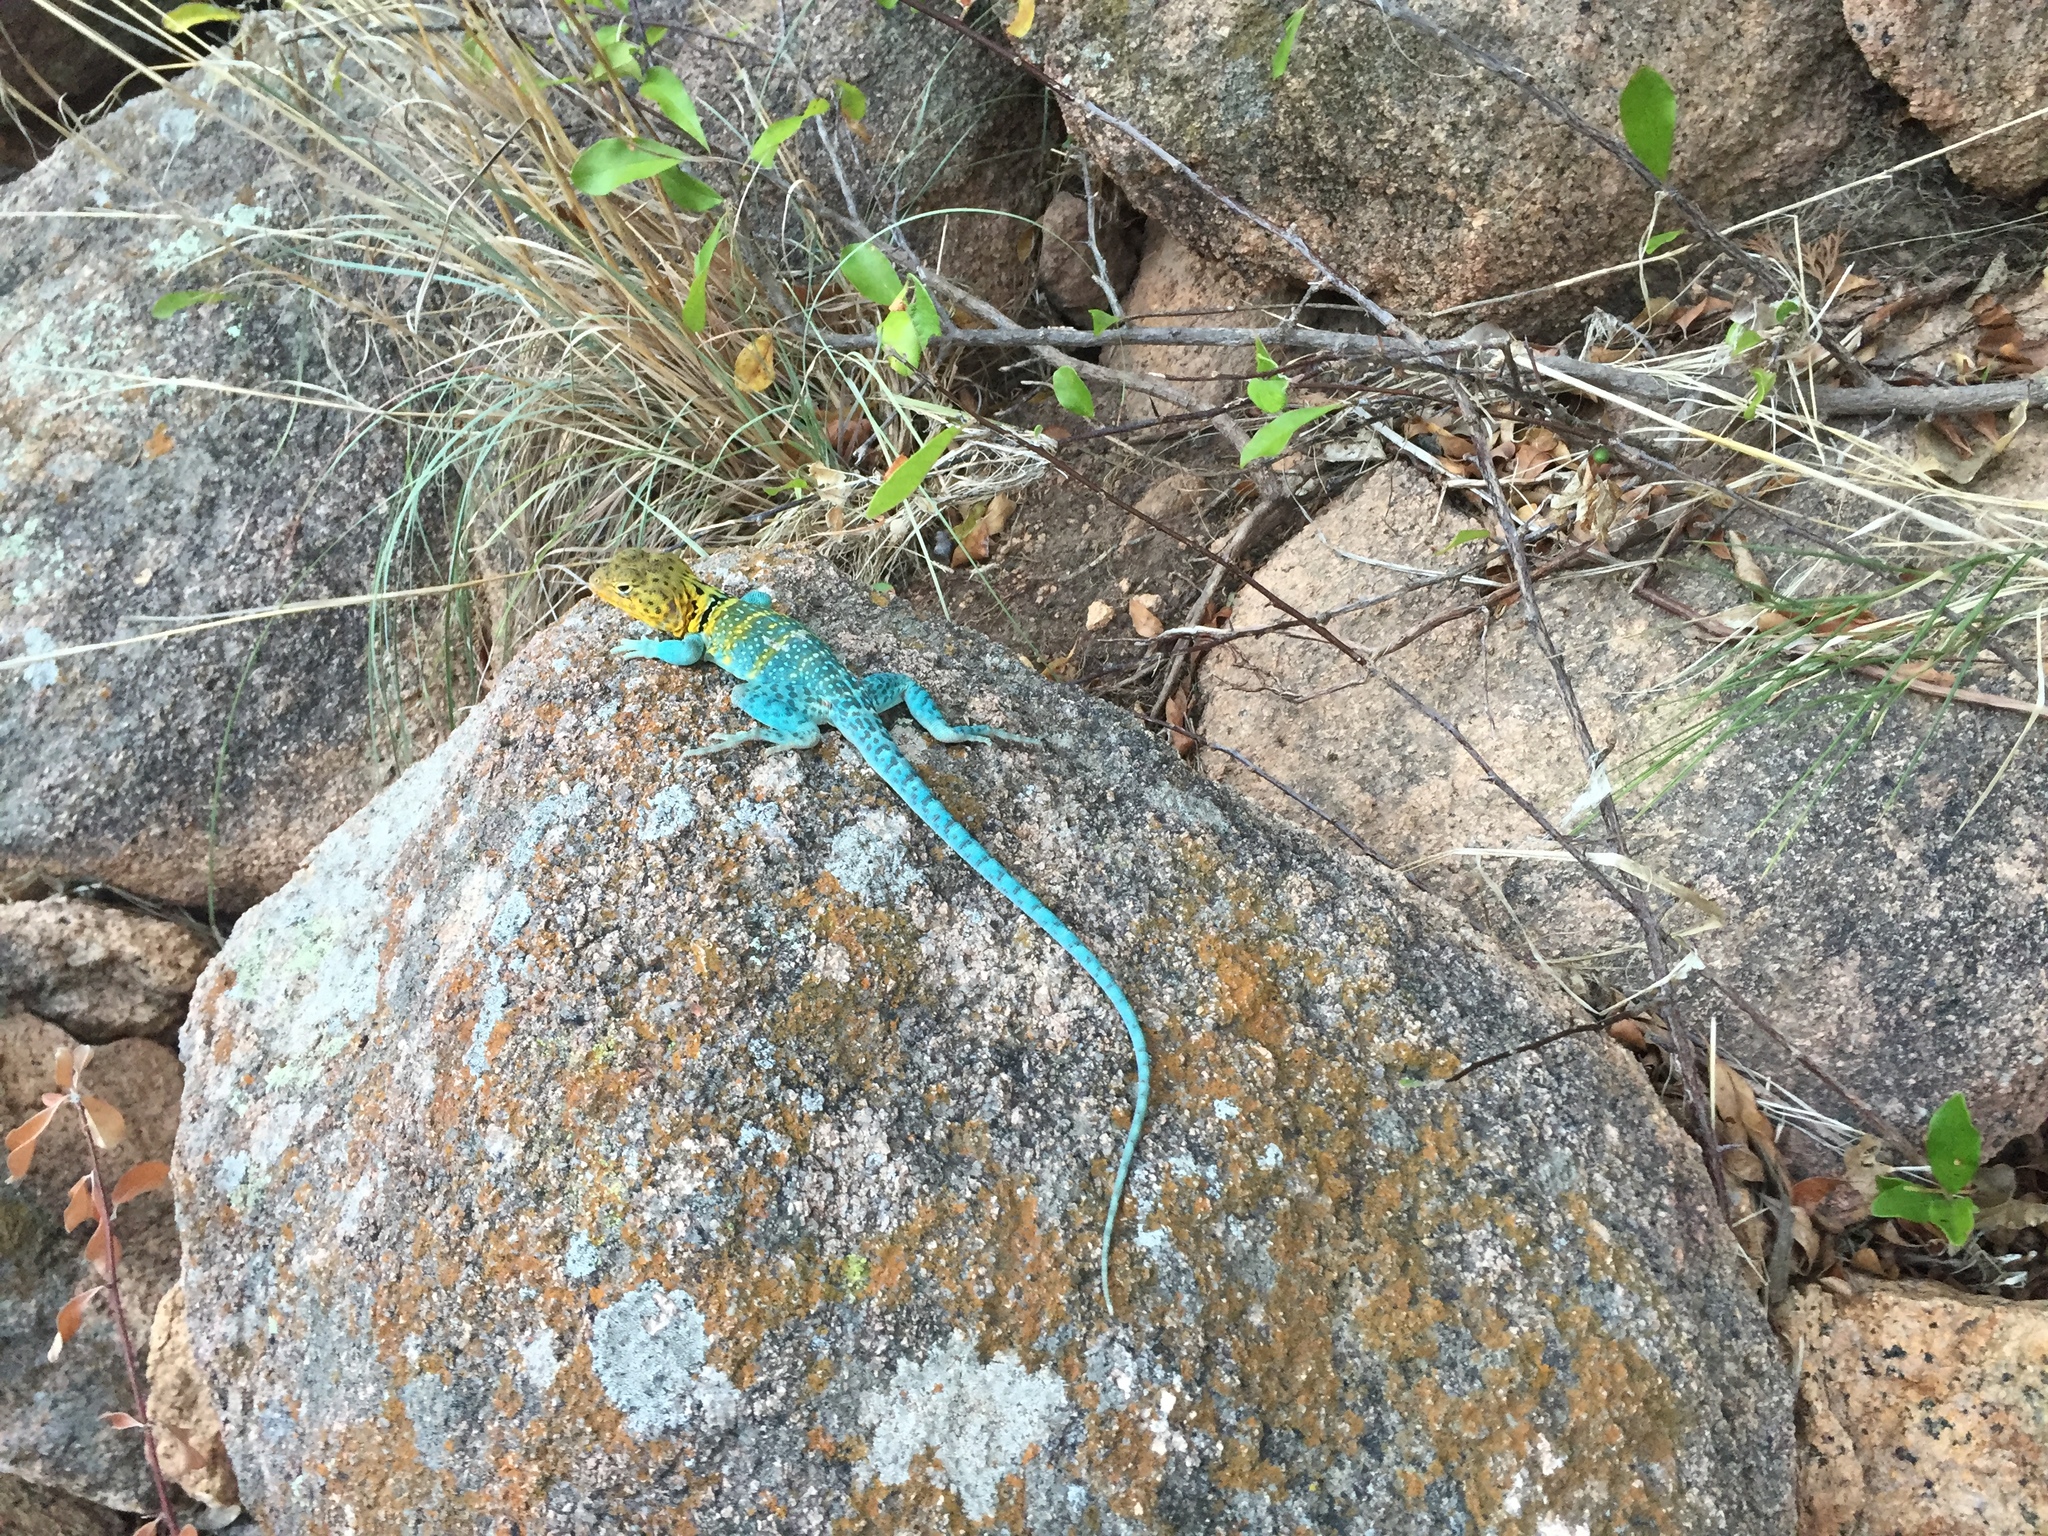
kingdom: Animalia
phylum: Chordata
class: Squamata
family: Crotaphytidae
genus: Crotaphytus
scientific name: Crotaphytus collaris
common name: Collared lizard
